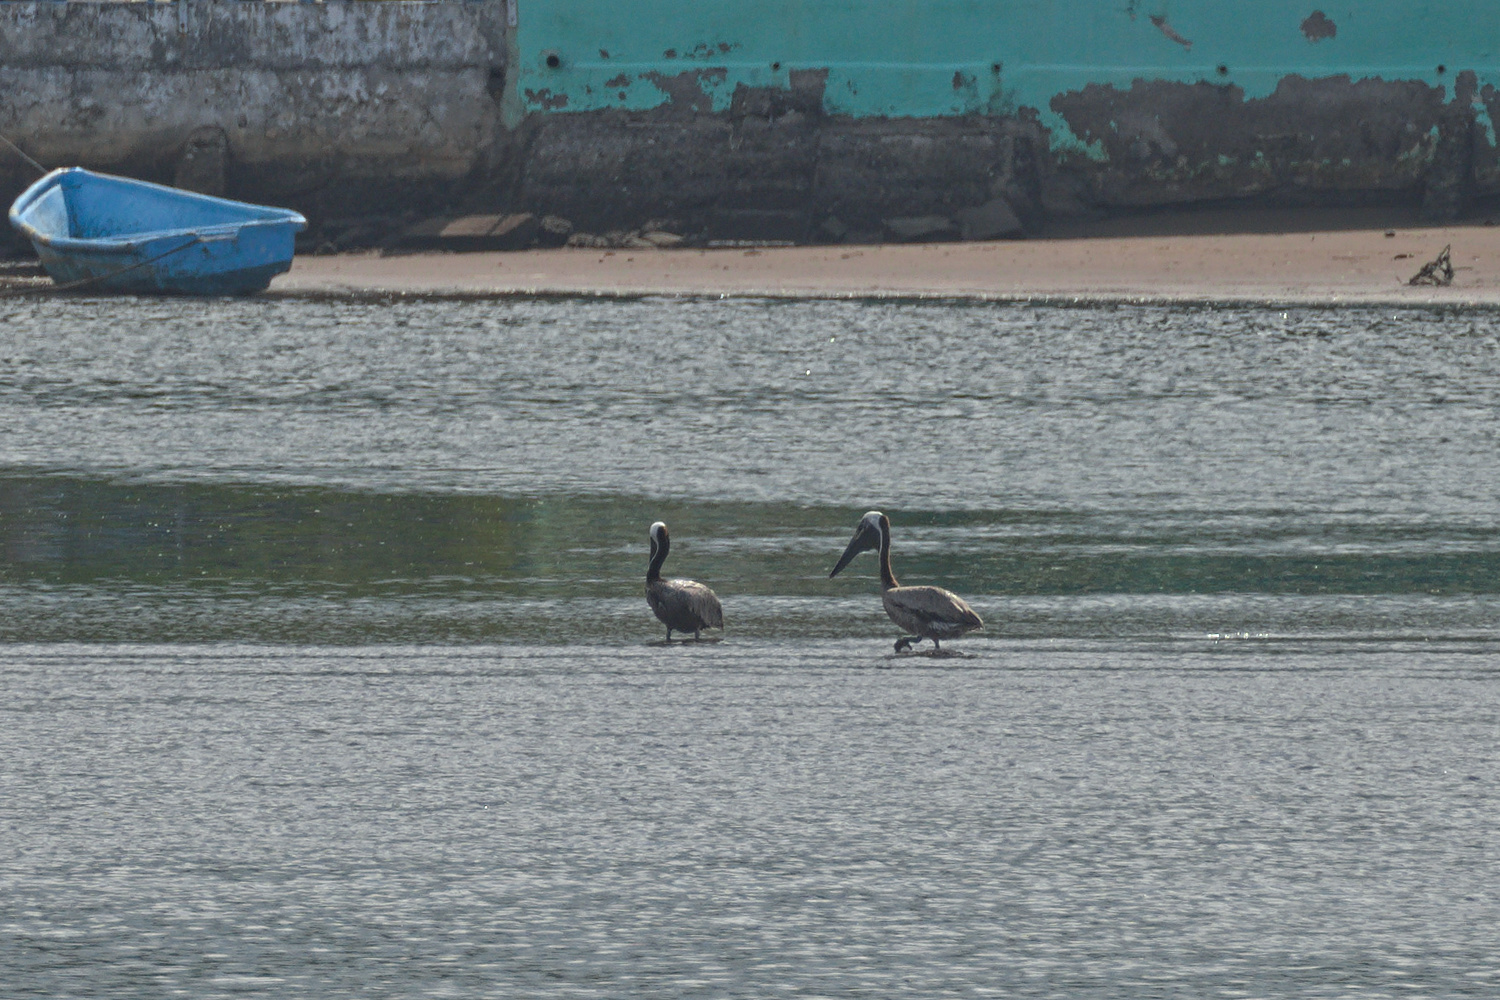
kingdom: Animalia
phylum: Chordata
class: Aves
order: Pelecaniformes
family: Pelecanidae
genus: Pelecanus
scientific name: Pelecanus occidentalis
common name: Brown pelican
